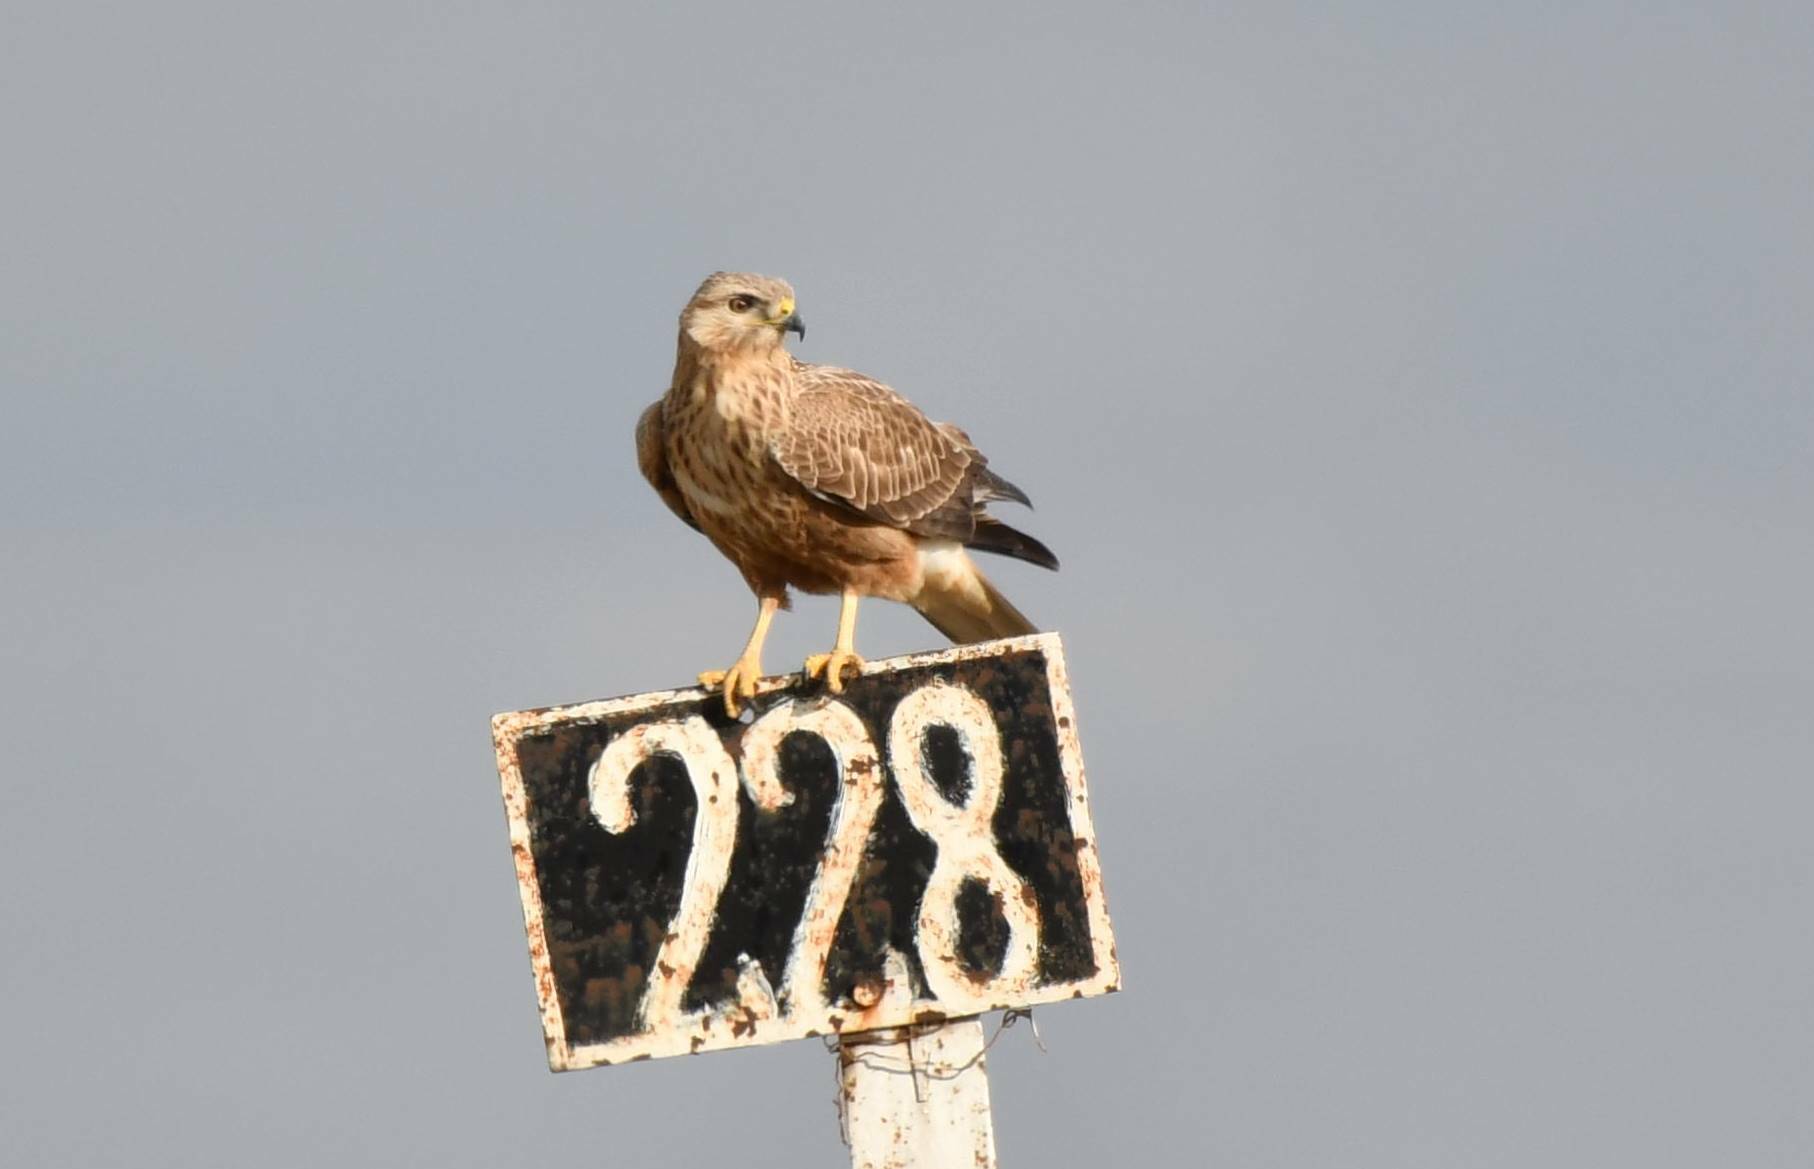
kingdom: Animalia
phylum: Chordata
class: Aves
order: Accipitriformes
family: Accipitridae
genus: Buteo
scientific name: Buteo rufinus
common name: Long-legged buzzard
